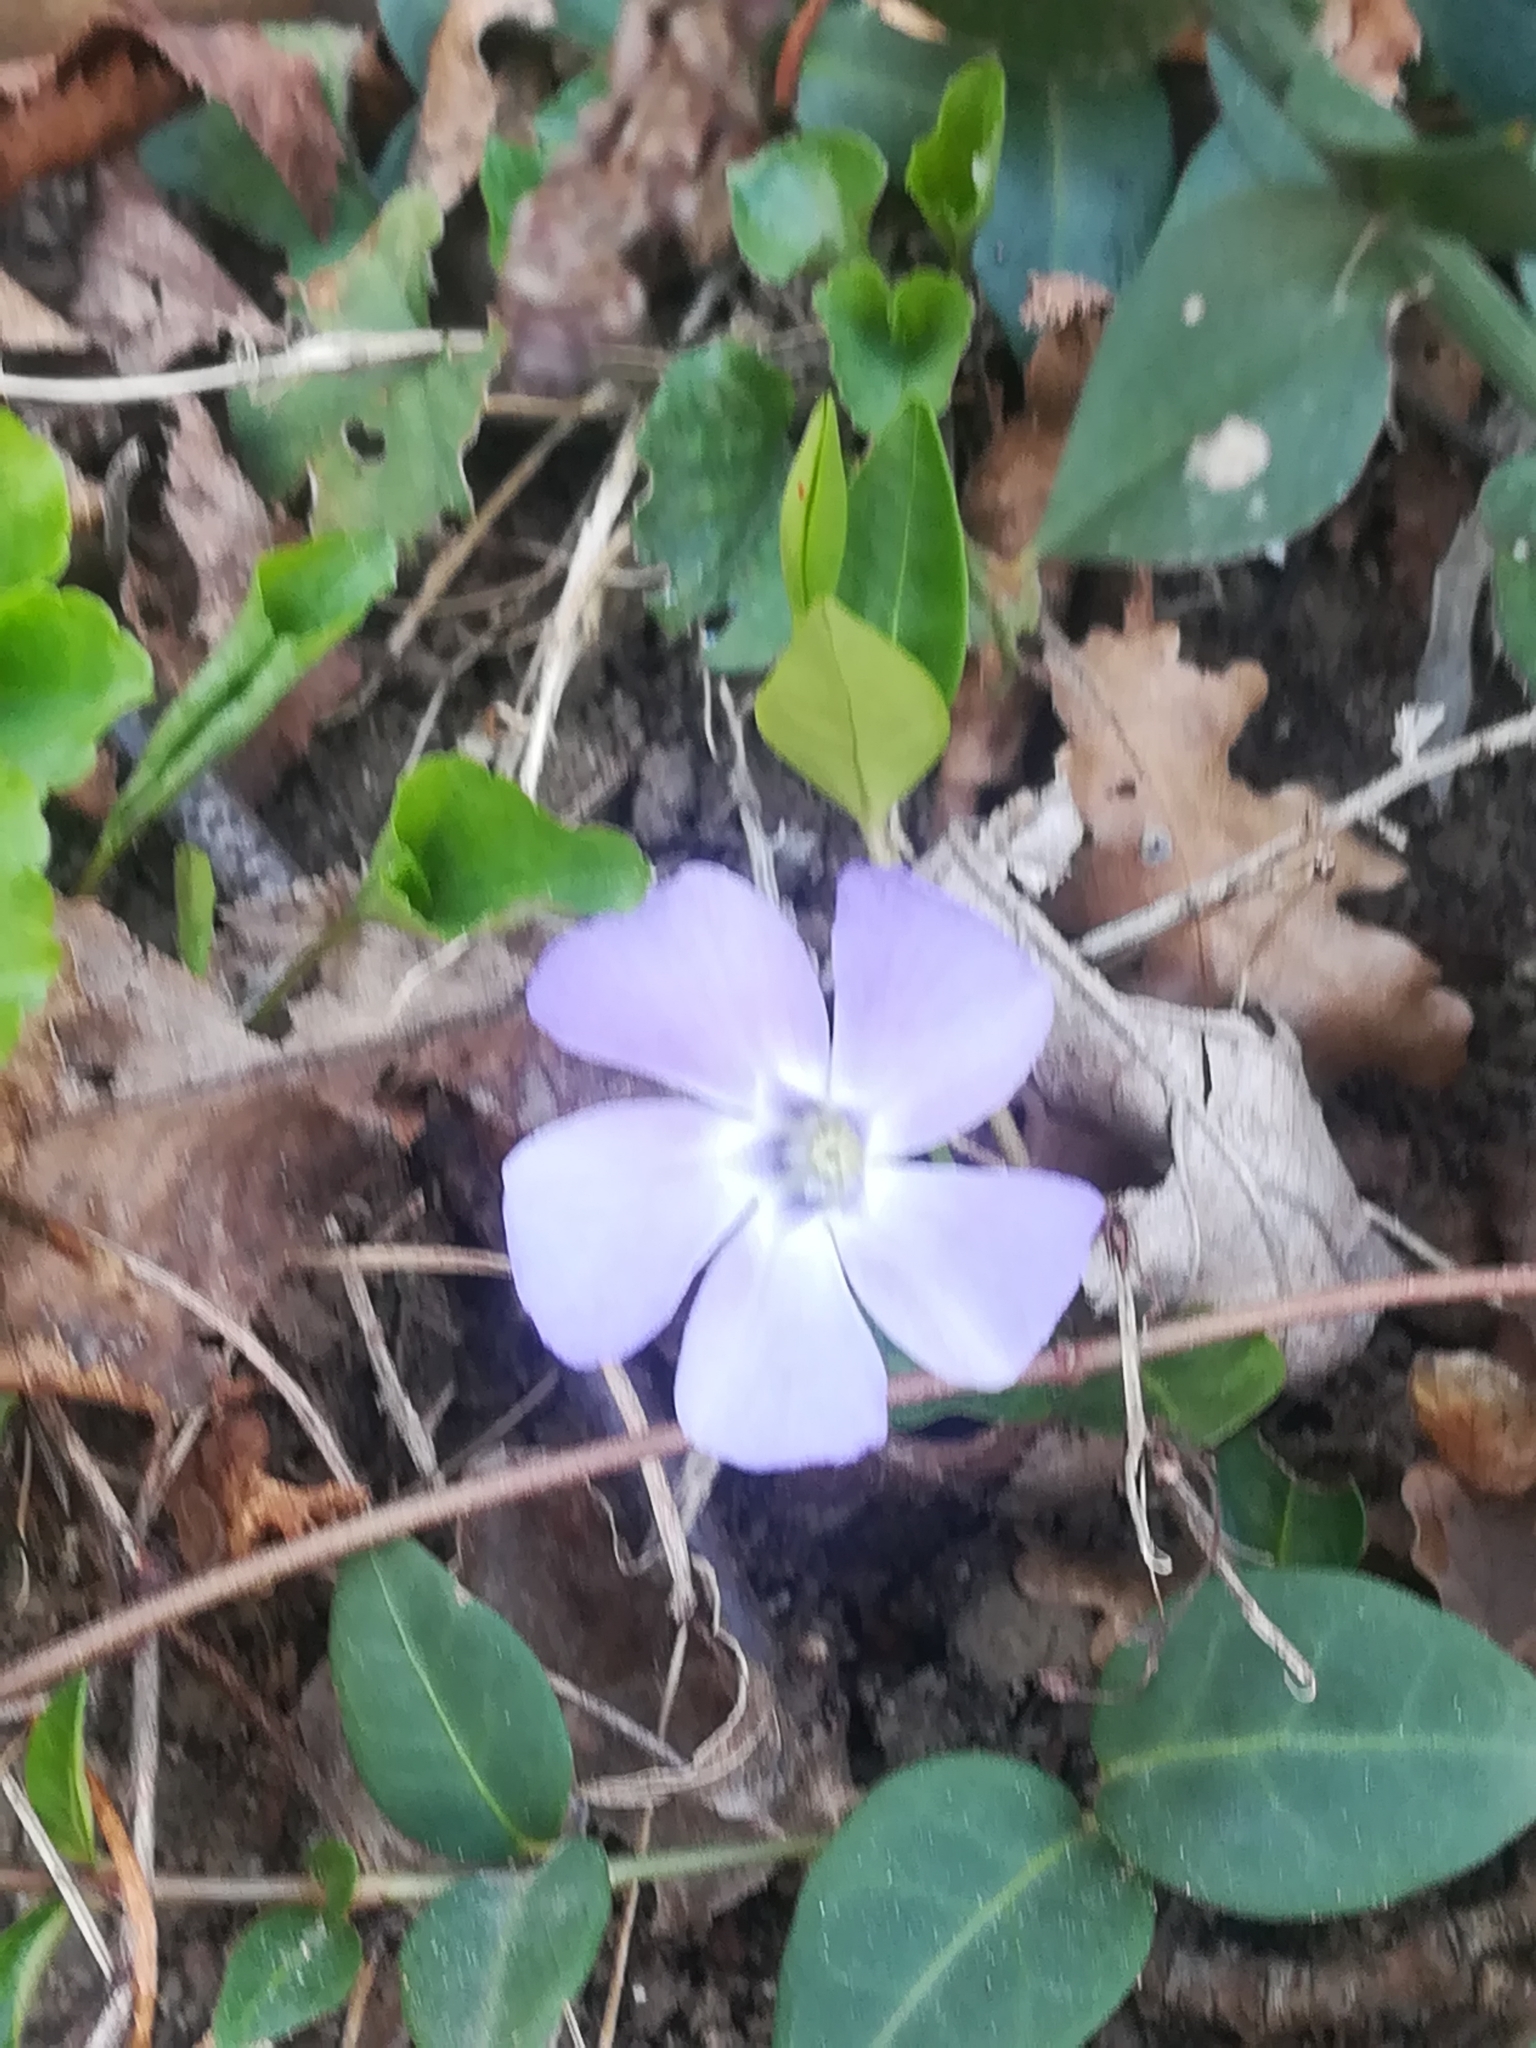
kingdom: Plantae
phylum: Tracheophyta
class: Magnoliopsida
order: Gentianales
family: Apocynaceae
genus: Vinca
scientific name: Vinca minor
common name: Lesser periwinkle
